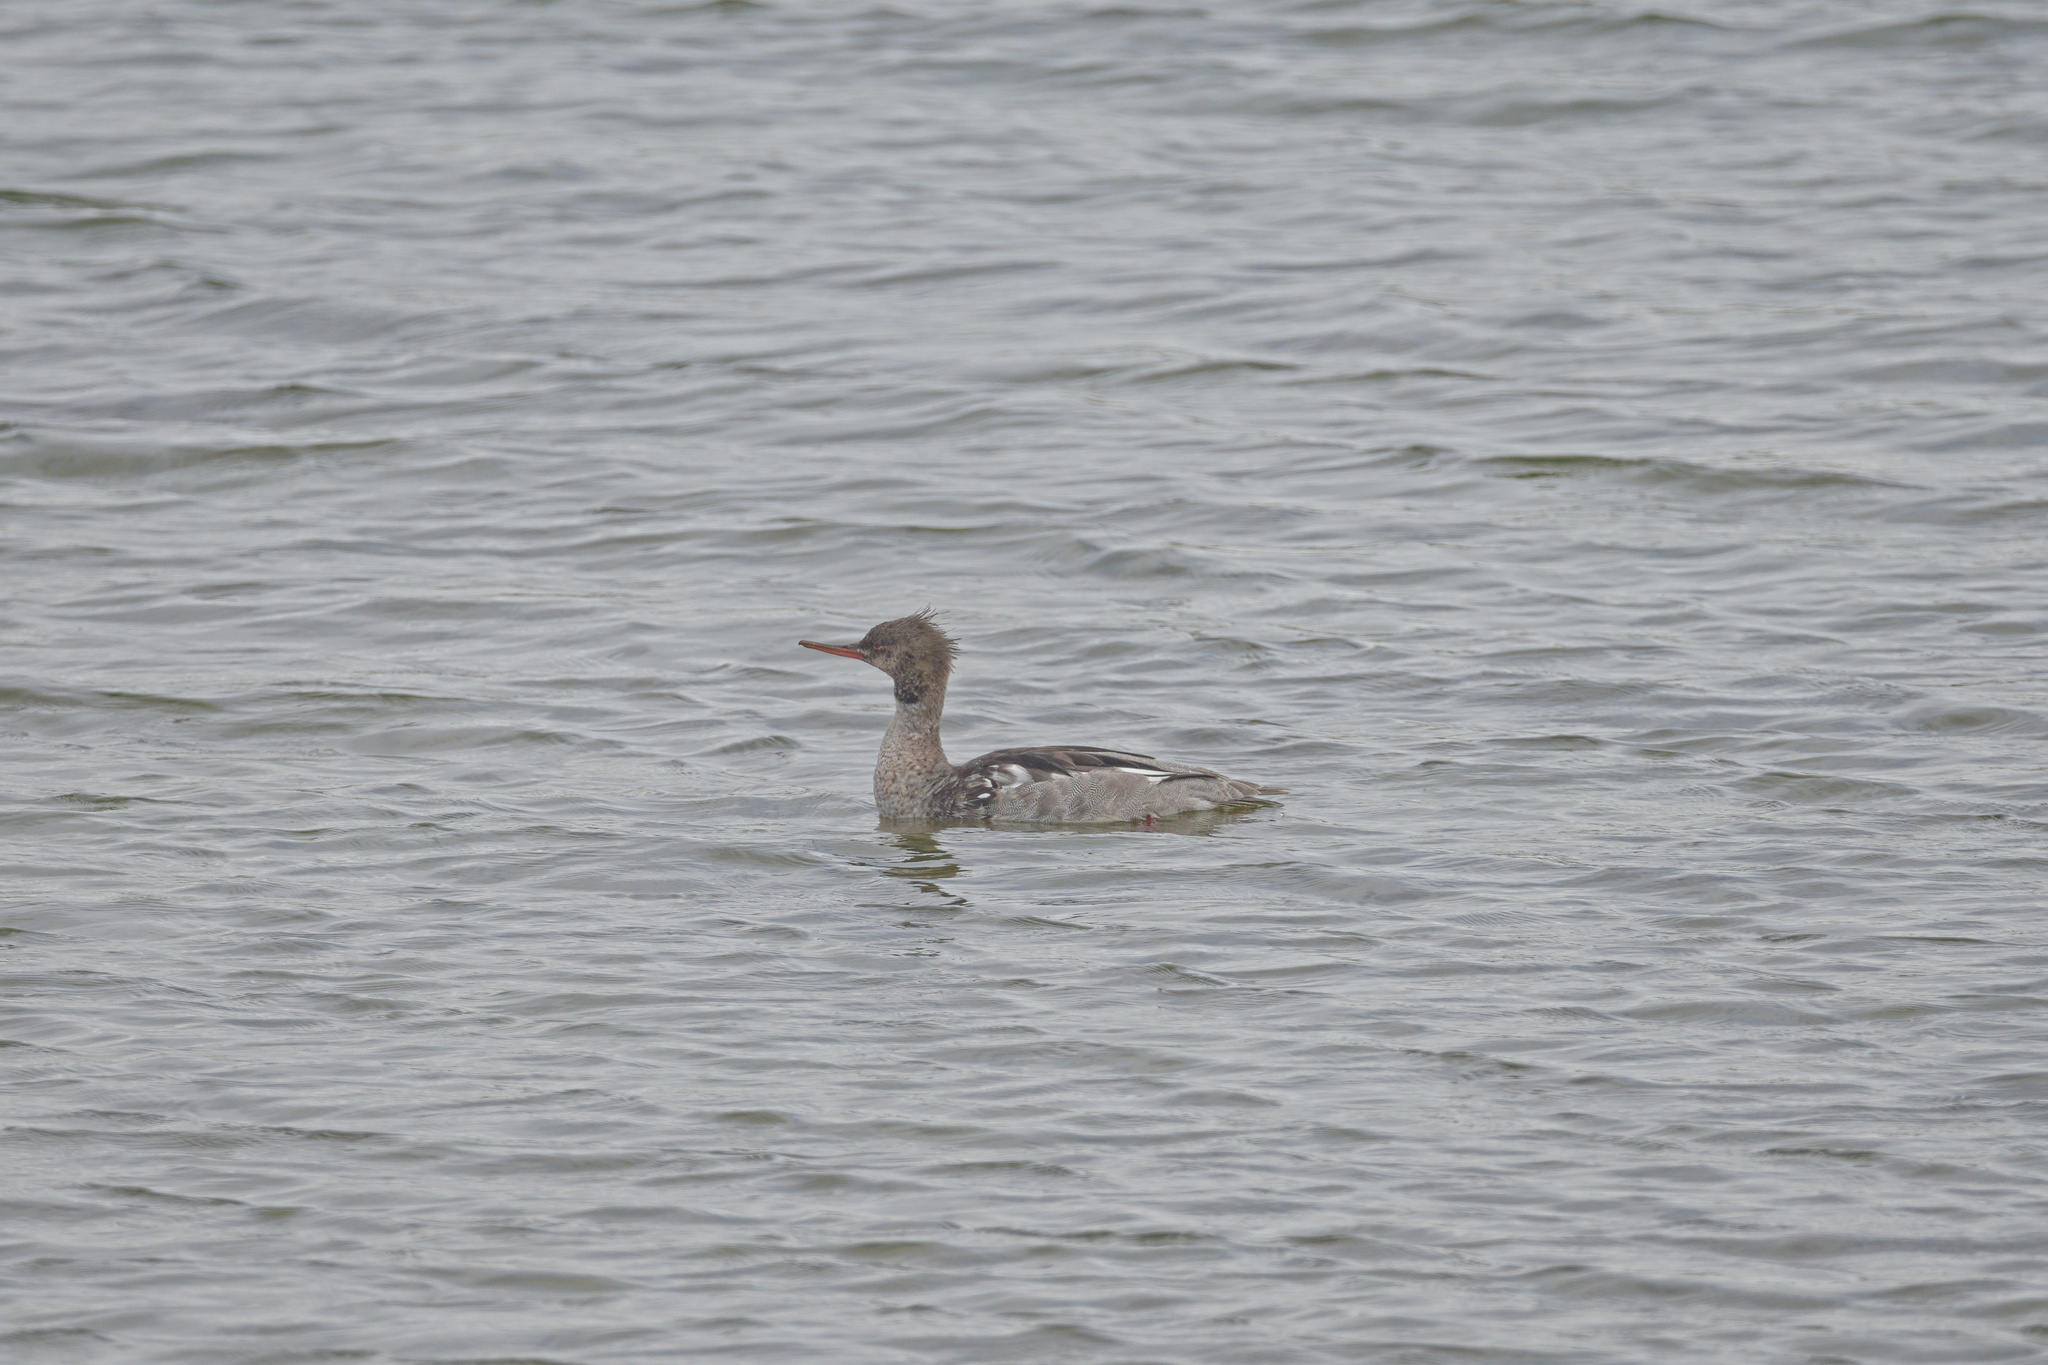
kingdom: Animalia
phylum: Chordata
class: Aves
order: Anseriformes
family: Anatidae
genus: Mergus
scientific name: Mergus serrator
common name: Red-breasted merganser
